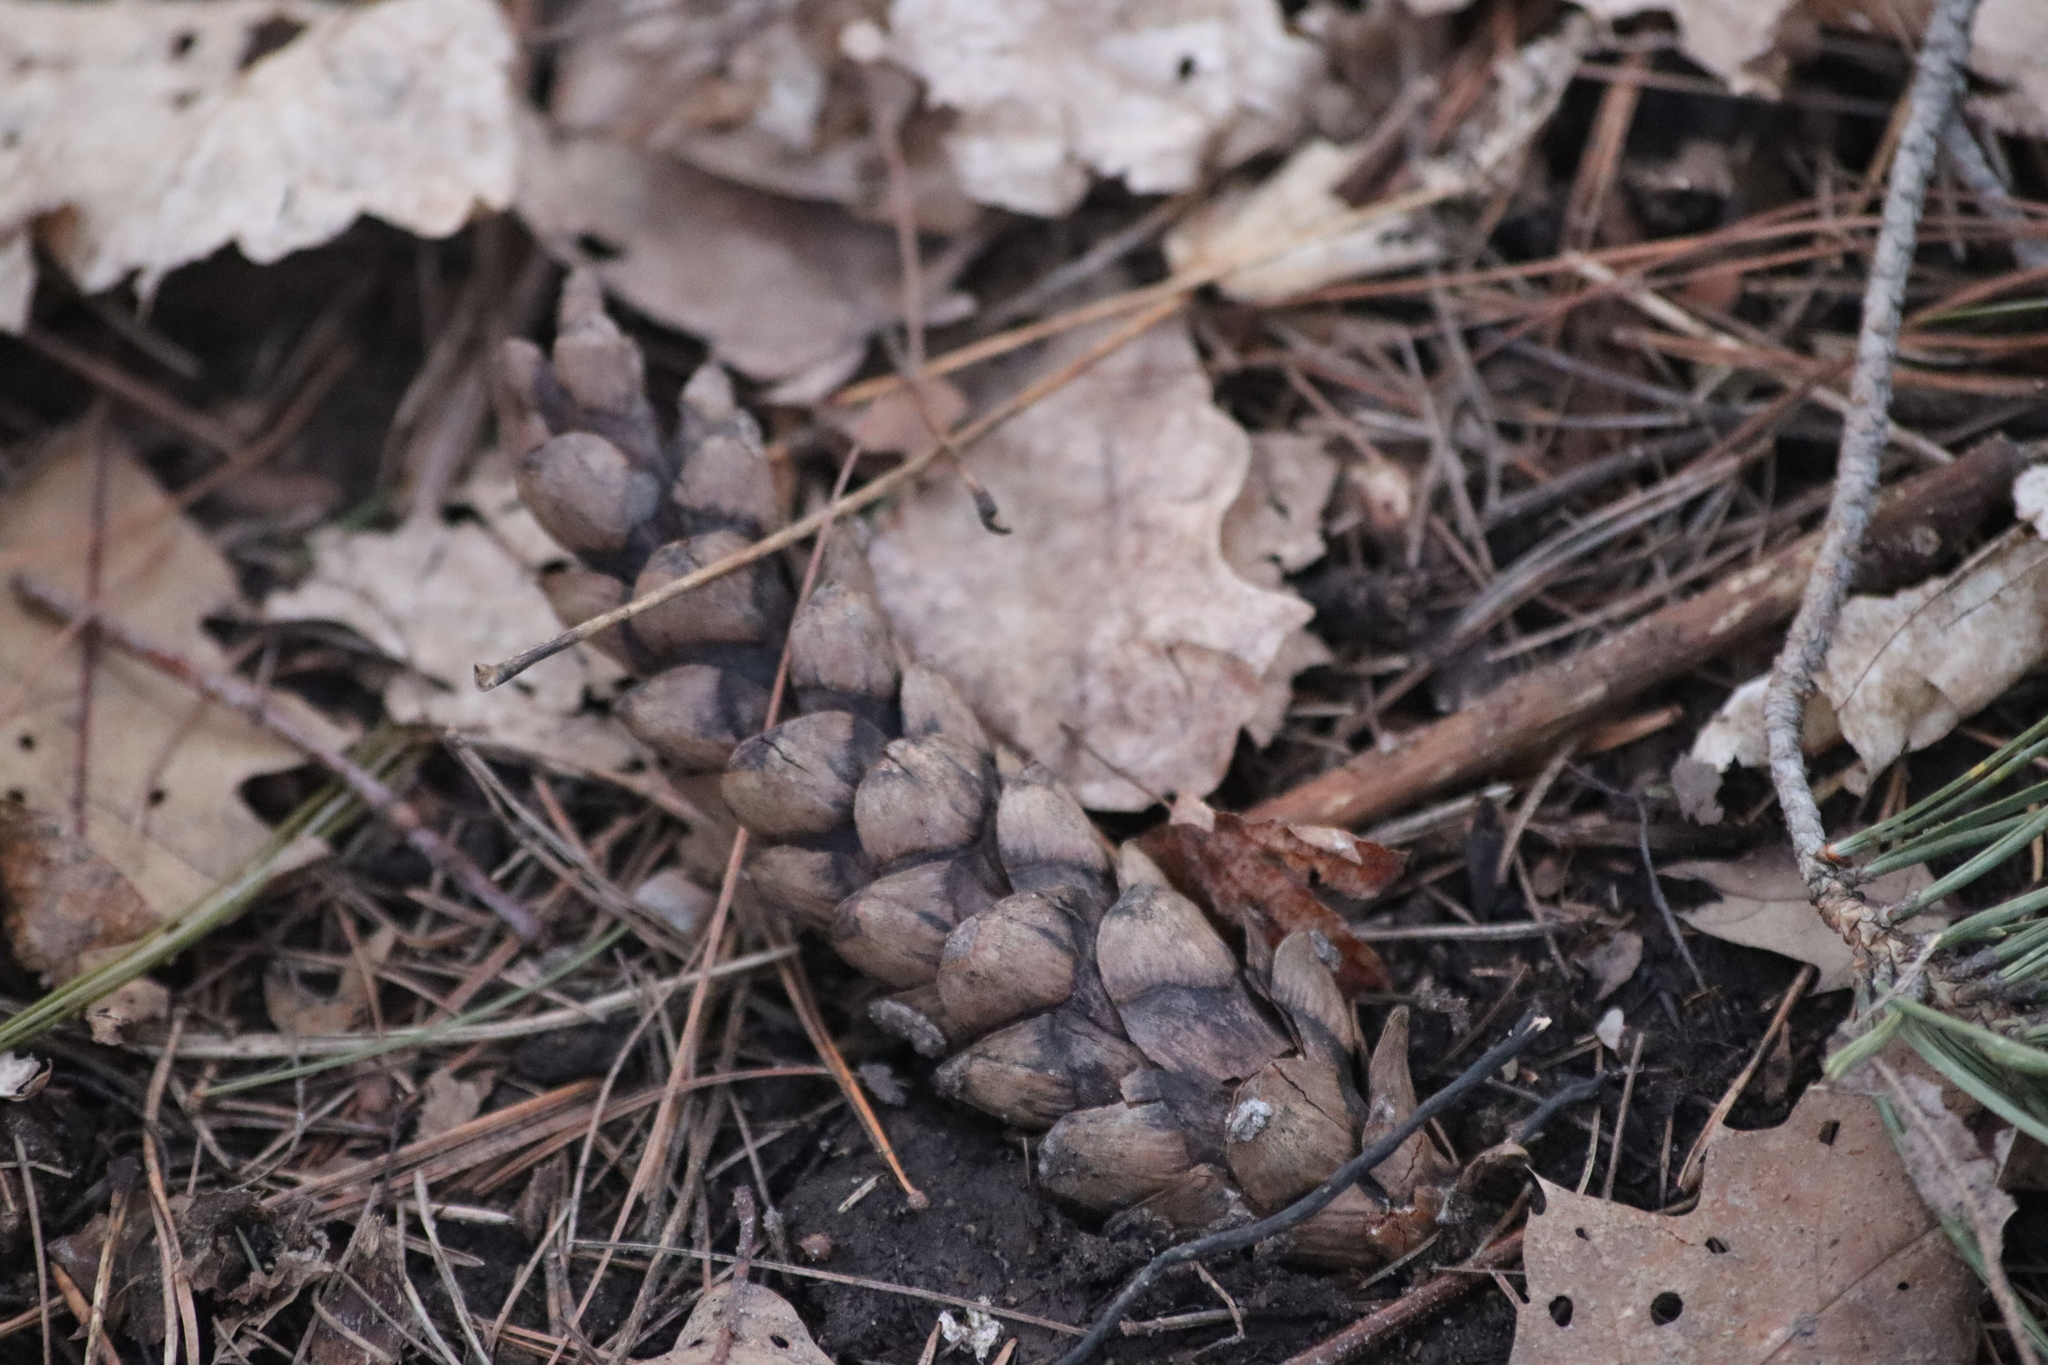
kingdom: Plantae
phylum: Tracheophyta
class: Pinopsida
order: Pinales
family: Pinaceae
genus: Pinus
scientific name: Pinus strobus
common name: Weymouth pine
